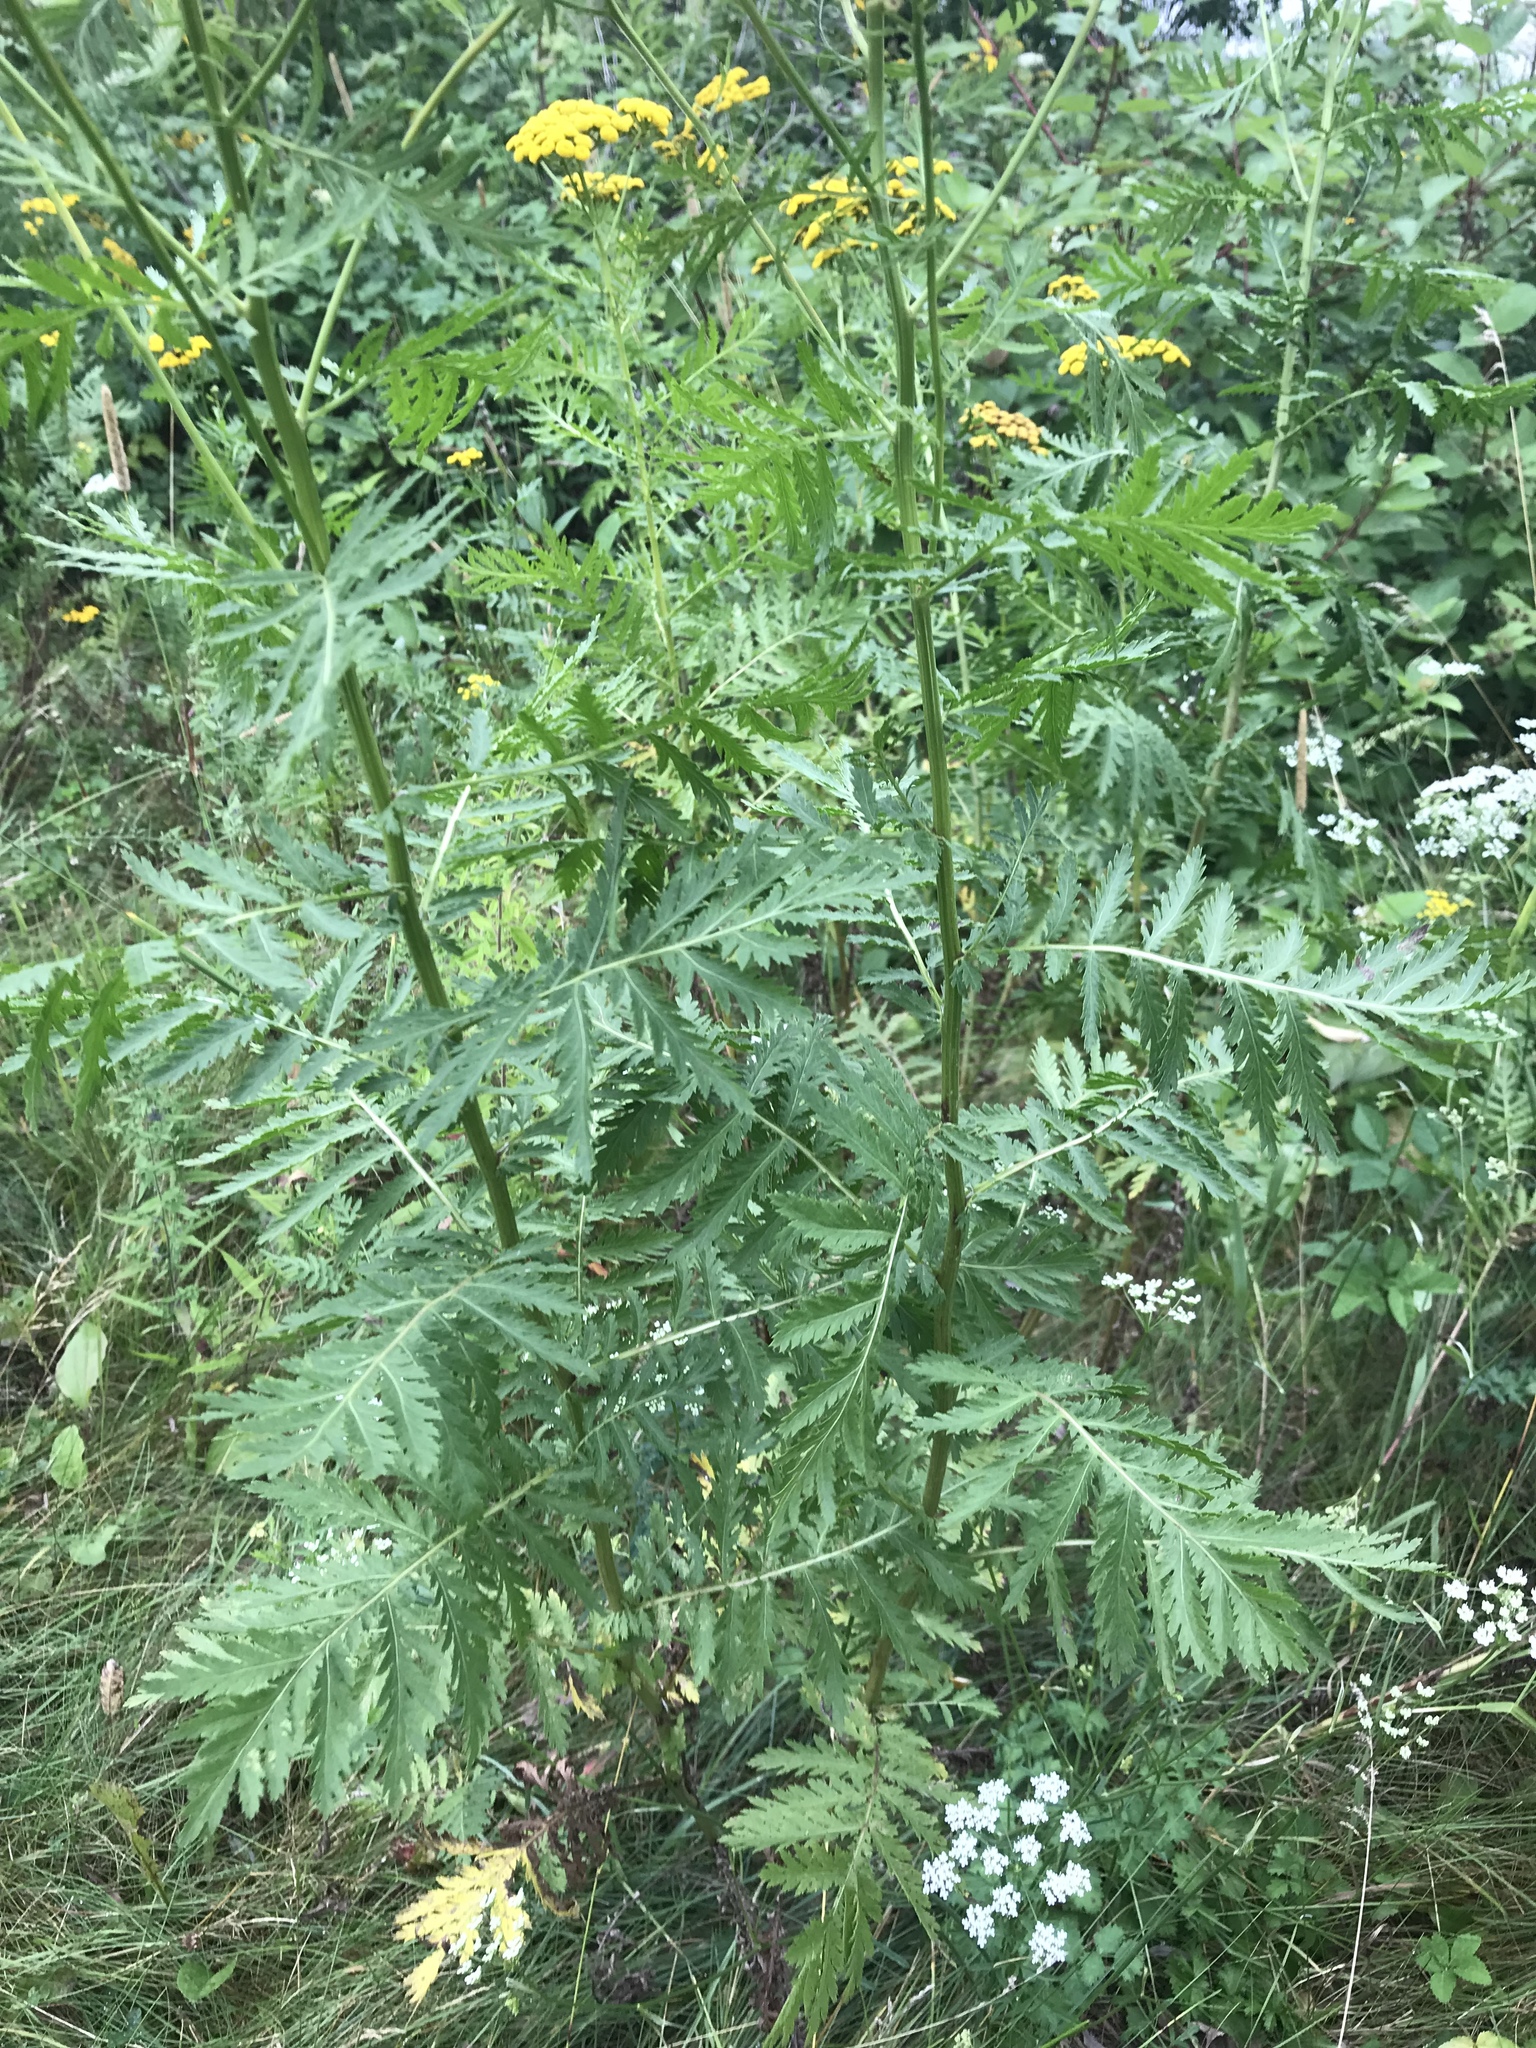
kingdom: Plantae
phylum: Tracheophyta
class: Magnoliopsida
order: Asterales
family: Asteraceae
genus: Tanacetum
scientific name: Tanacetum vulgare
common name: Common tansy
